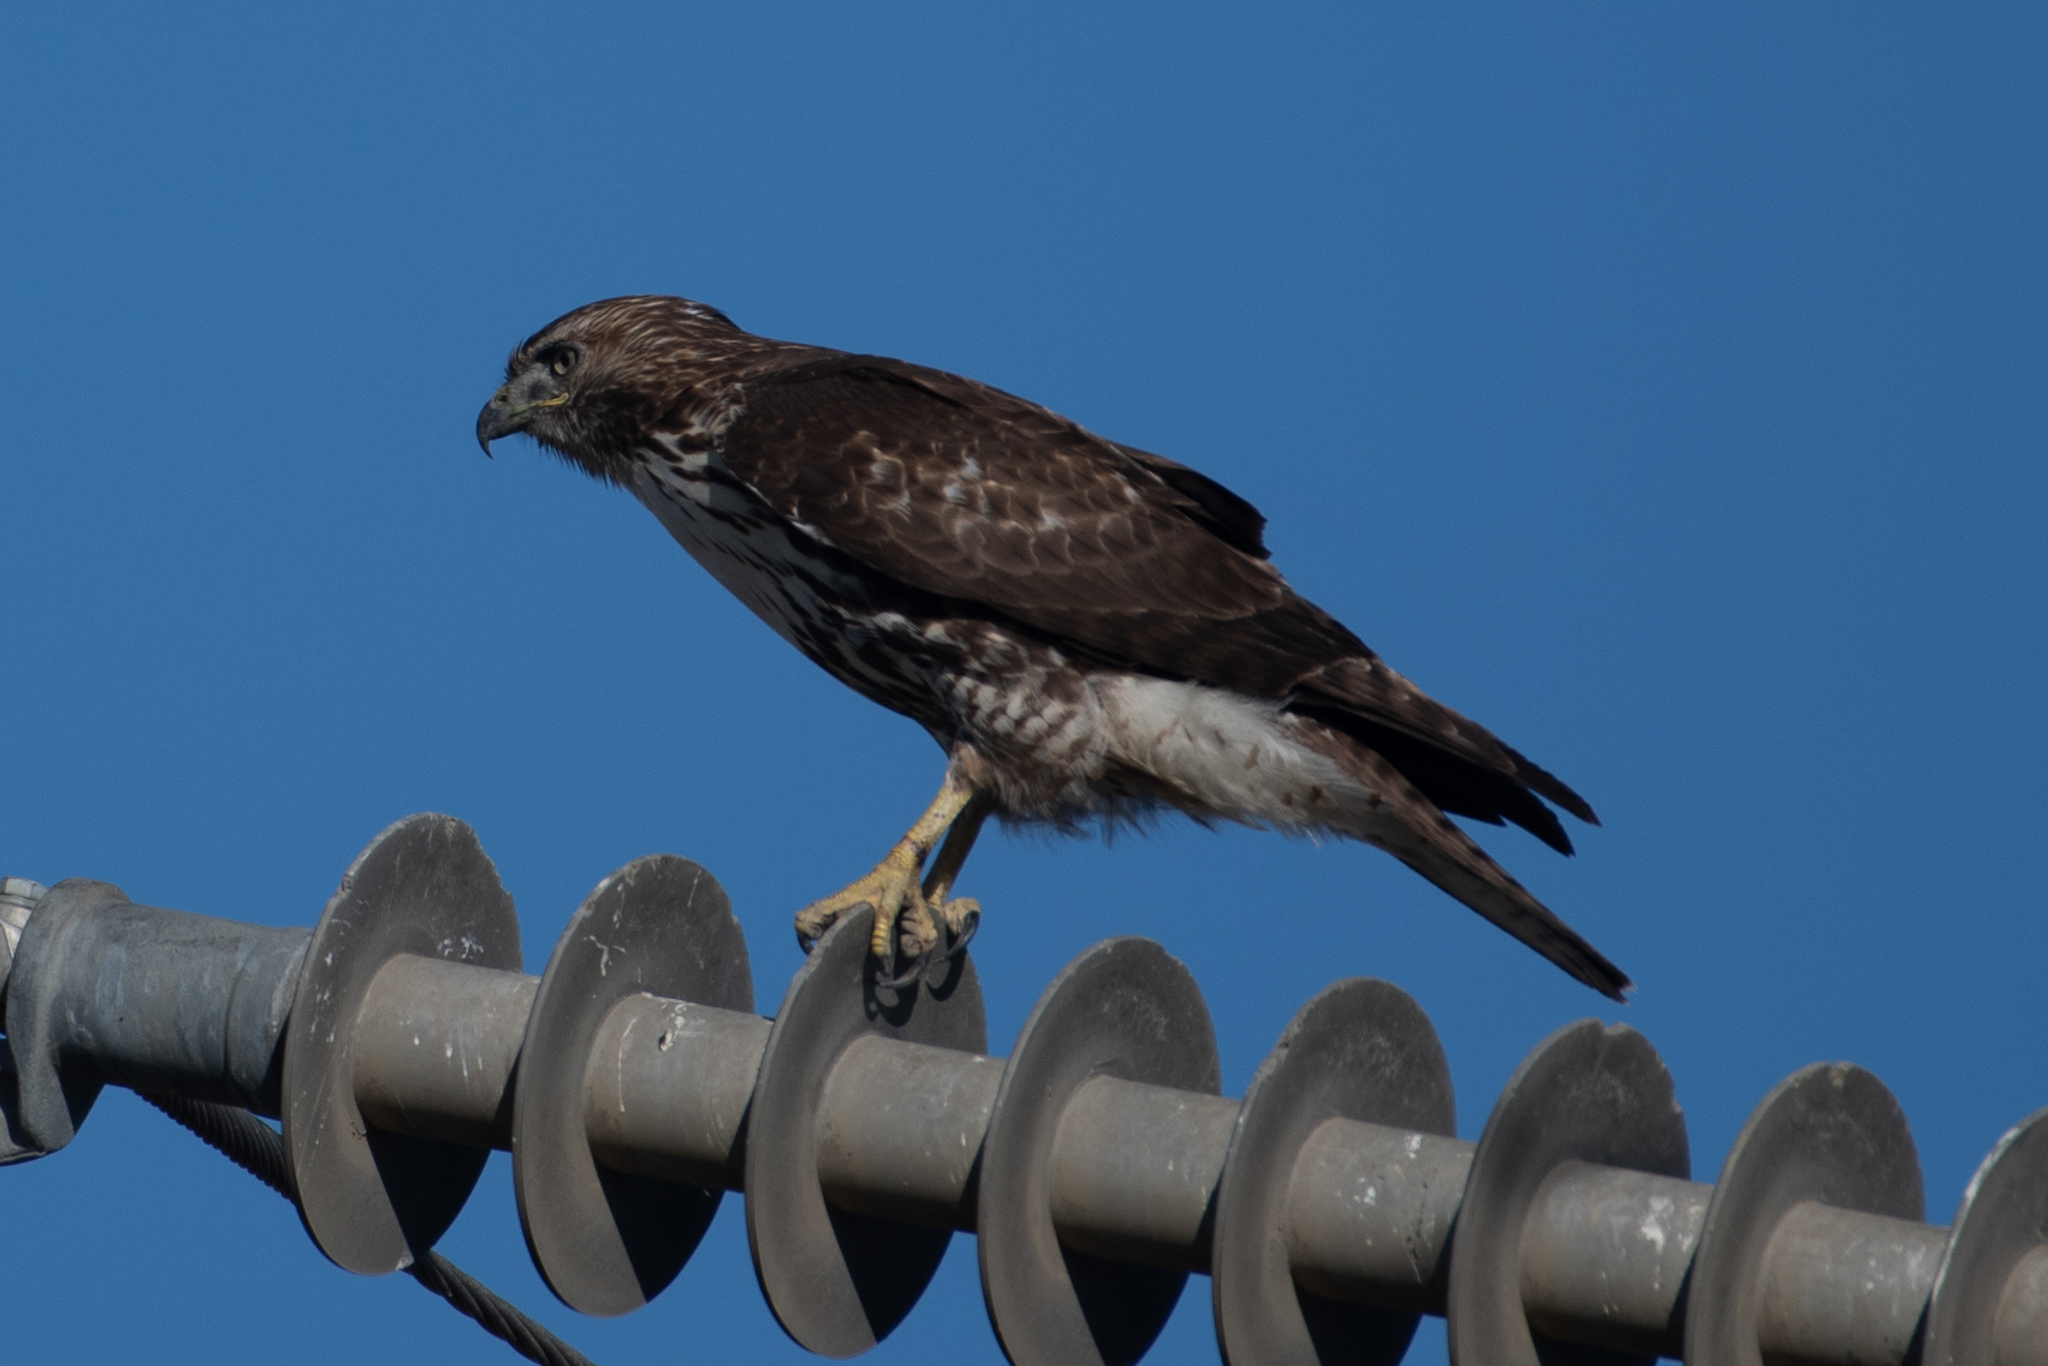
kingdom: Animalia
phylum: Chordata
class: Aves
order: Accipitriformes
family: Accipitridae
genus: Buteo
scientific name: Buteo jamaicensis
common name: Red-tailed hawk
